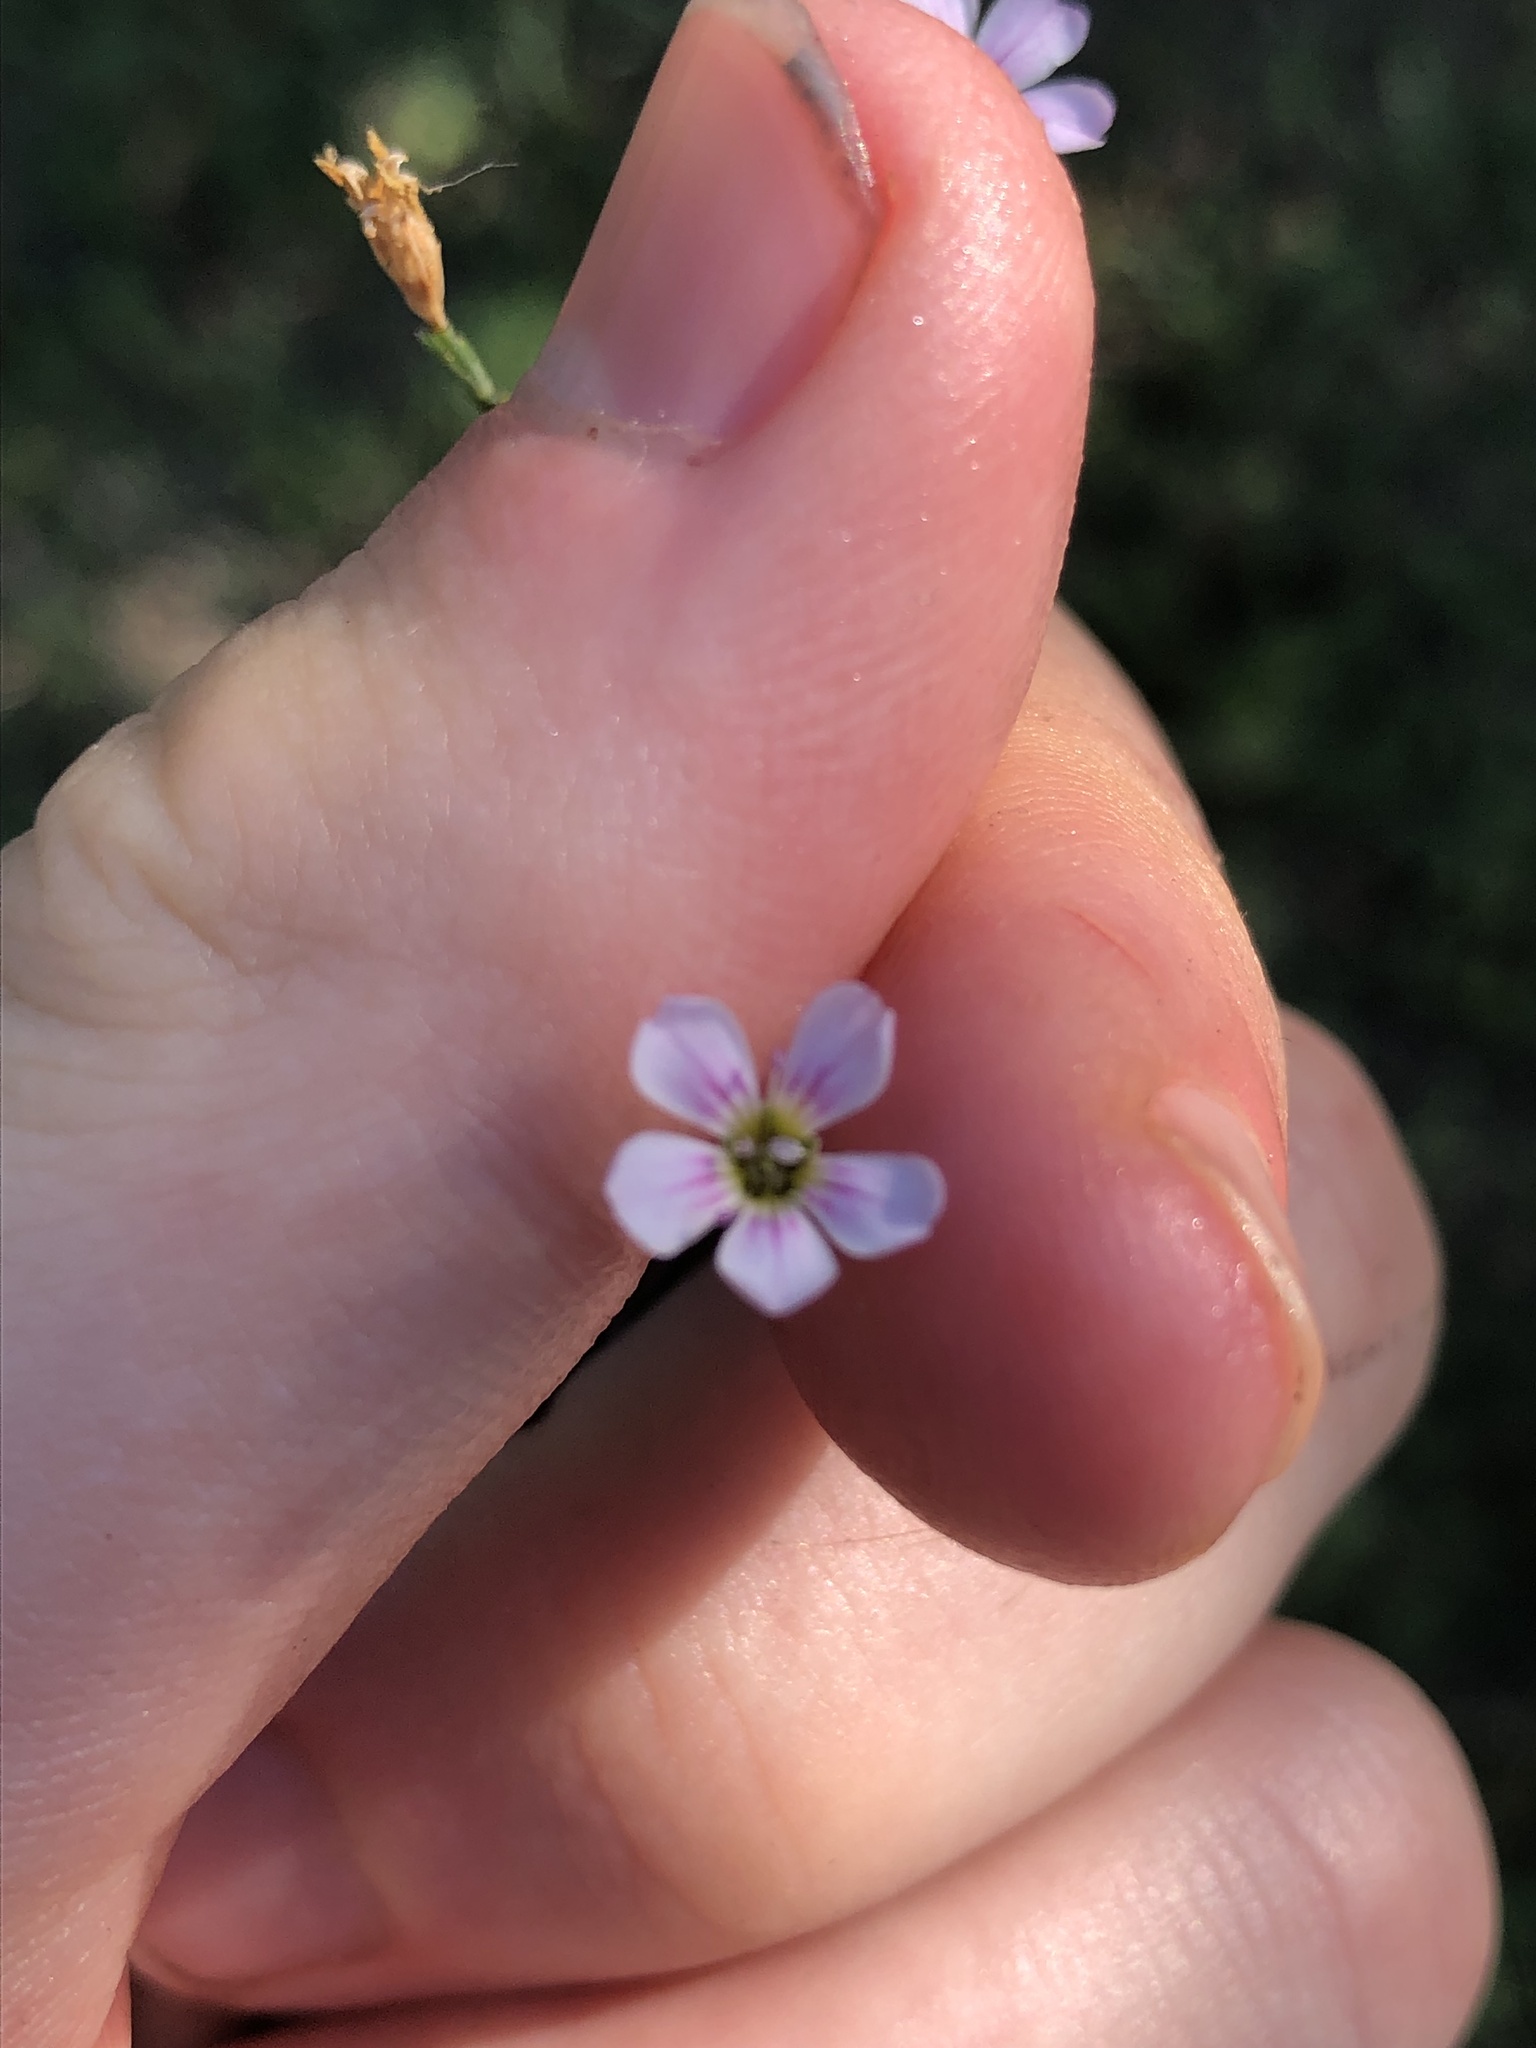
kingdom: Plantae
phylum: Tracheophyta
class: Magnoliopsida
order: Caryophyllales
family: Caryophyllaceae
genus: Petrorhagia
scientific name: Petrorhagia saxifraga
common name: Tunicflower
